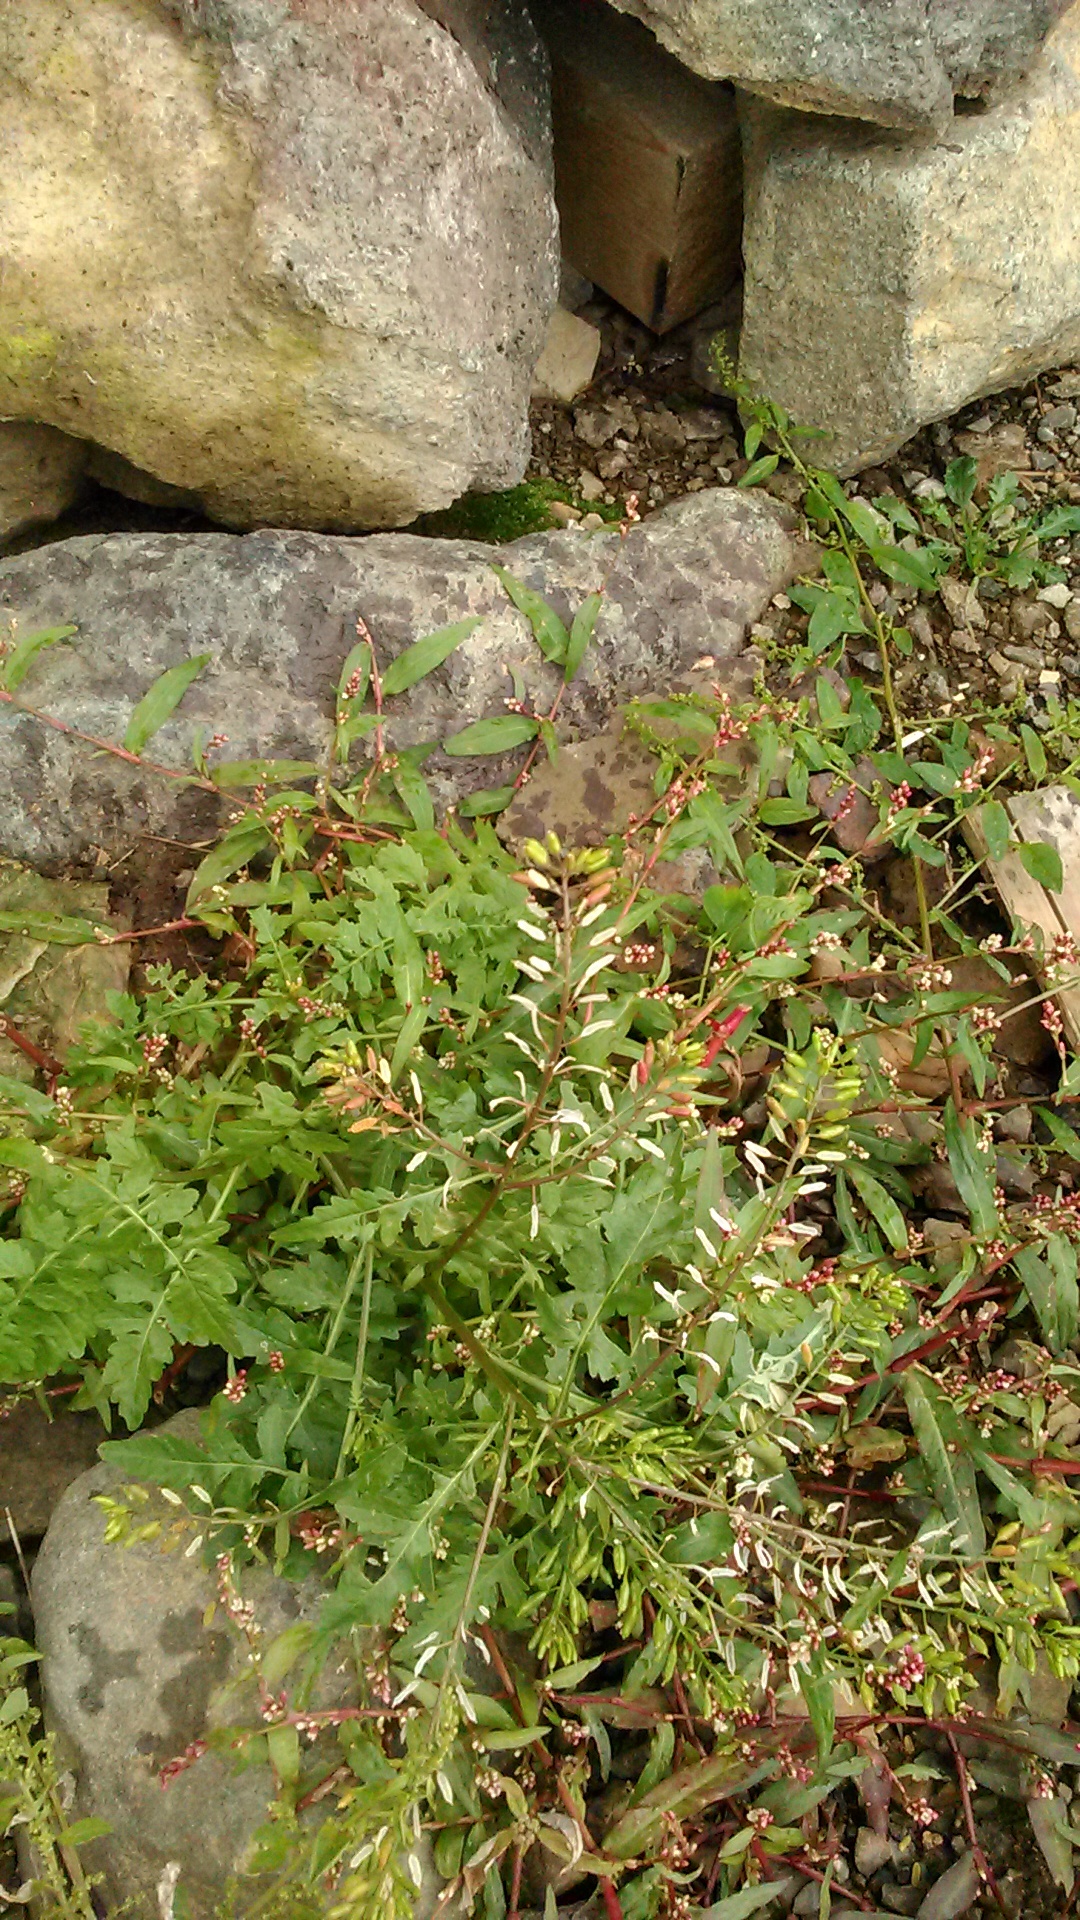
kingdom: Plantae
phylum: Tracheophyta
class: Magnoliopsida
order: Brassicales
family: Brassicaceae
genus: Rorippa
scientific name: Rorippa palustris
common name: Marsh yellow-cress
